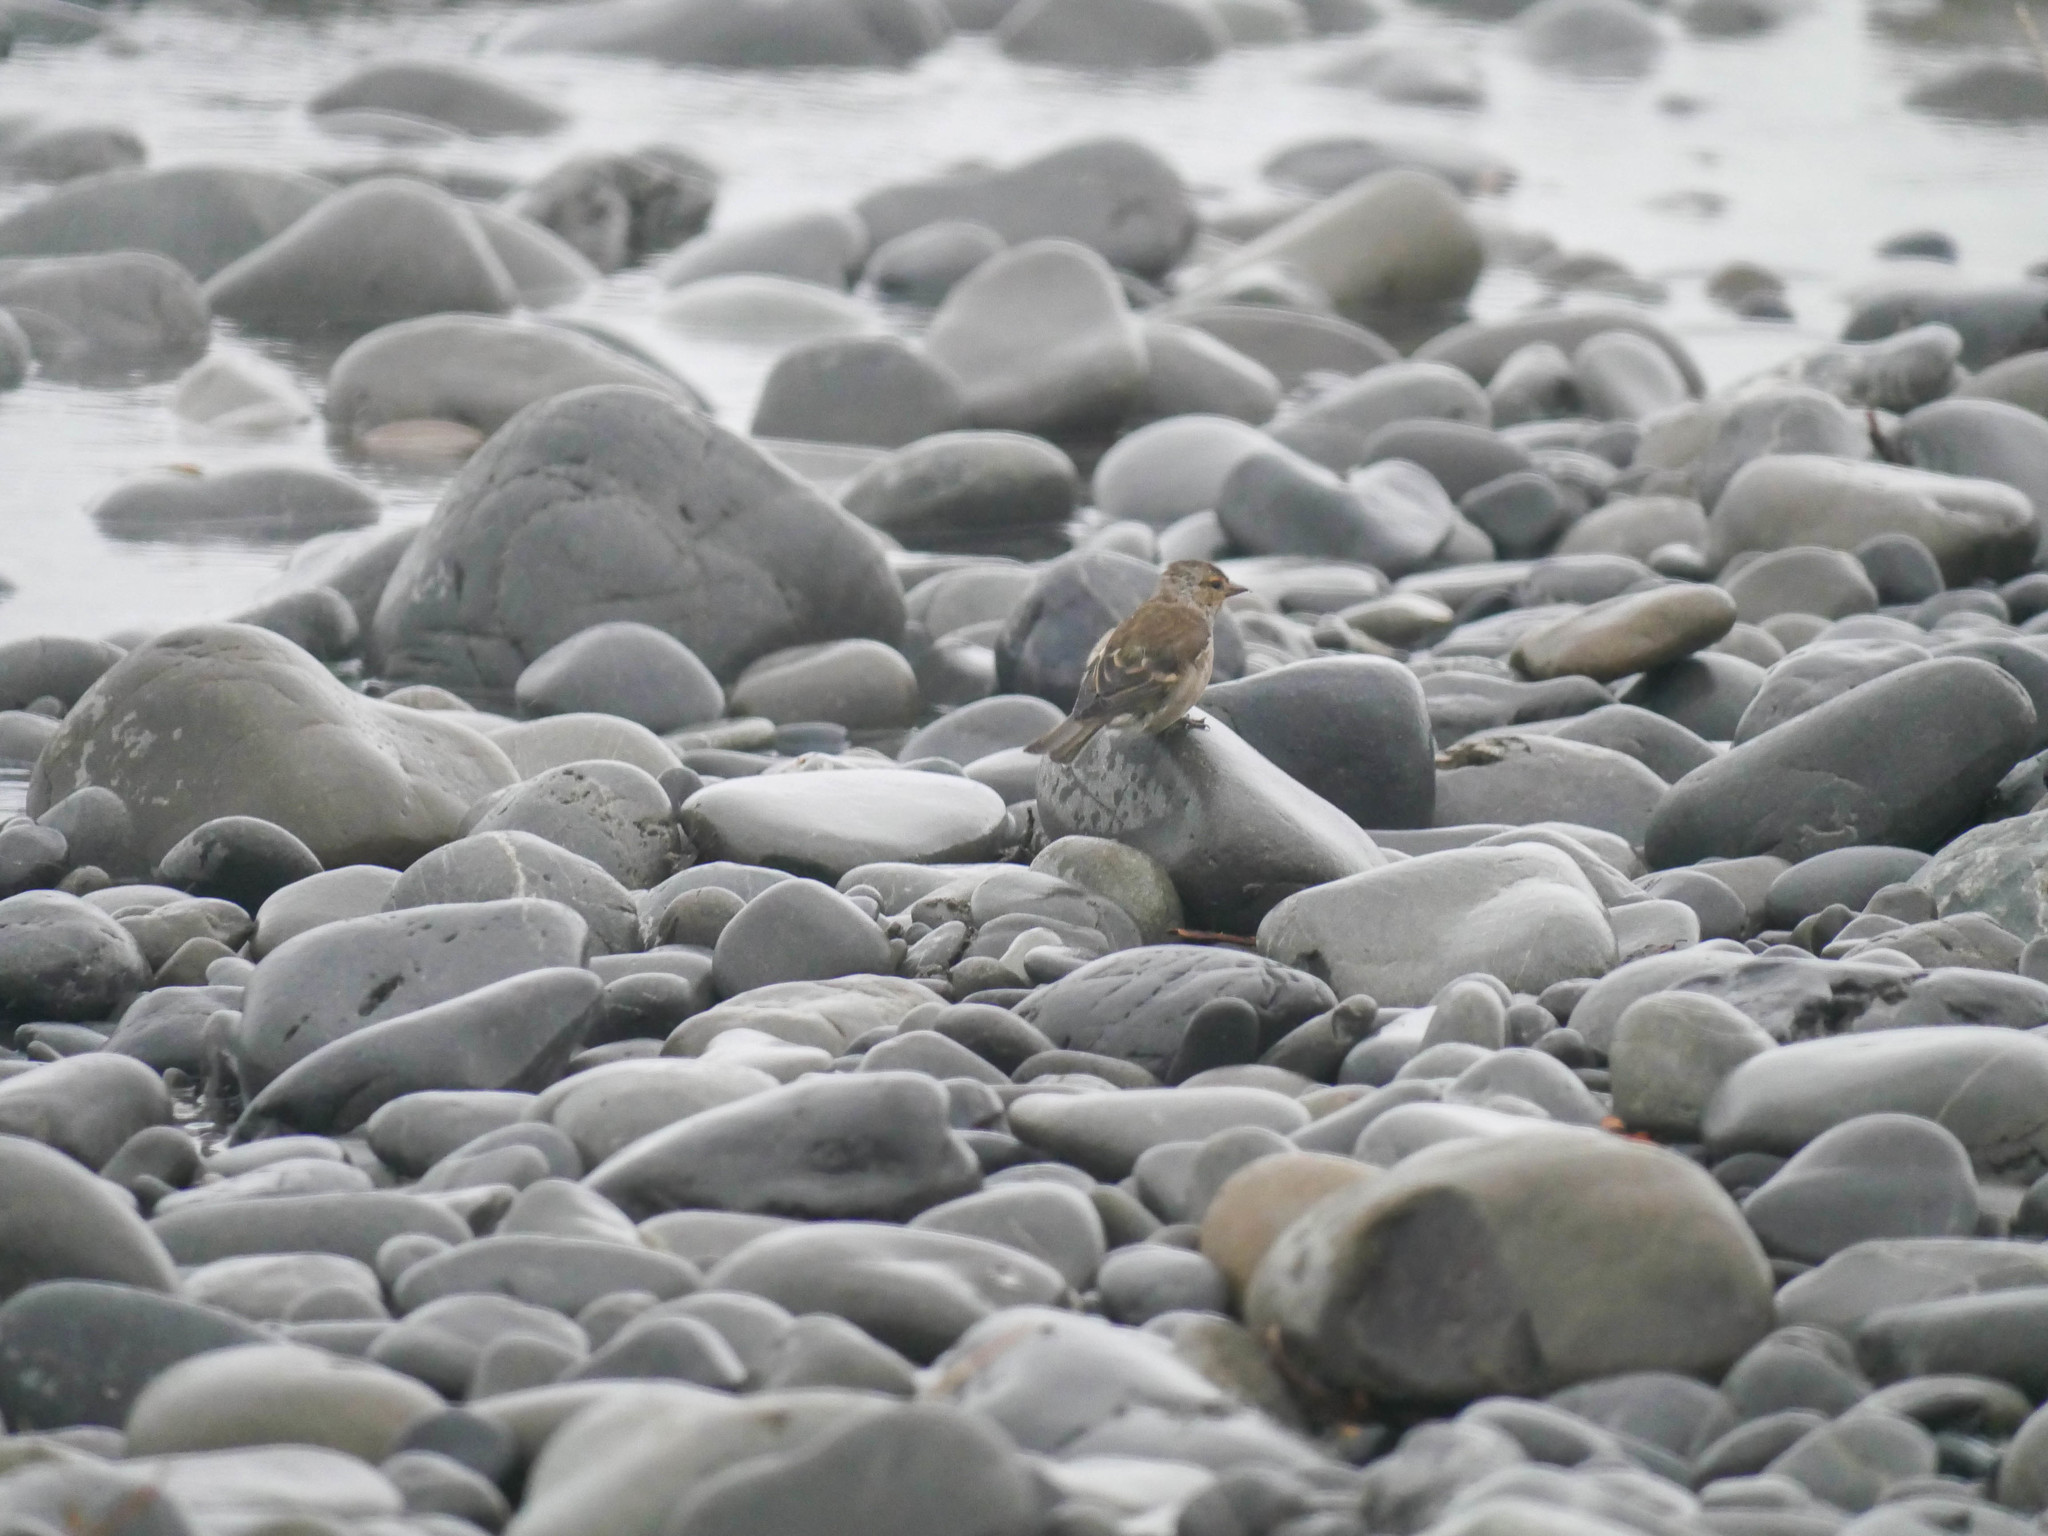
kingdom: Animalia
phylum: Chordata
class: Aves
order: Passeriformes
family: Fringillidae
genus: Fringilla
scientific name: Fringilla coelebs
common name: Common chaffinch
